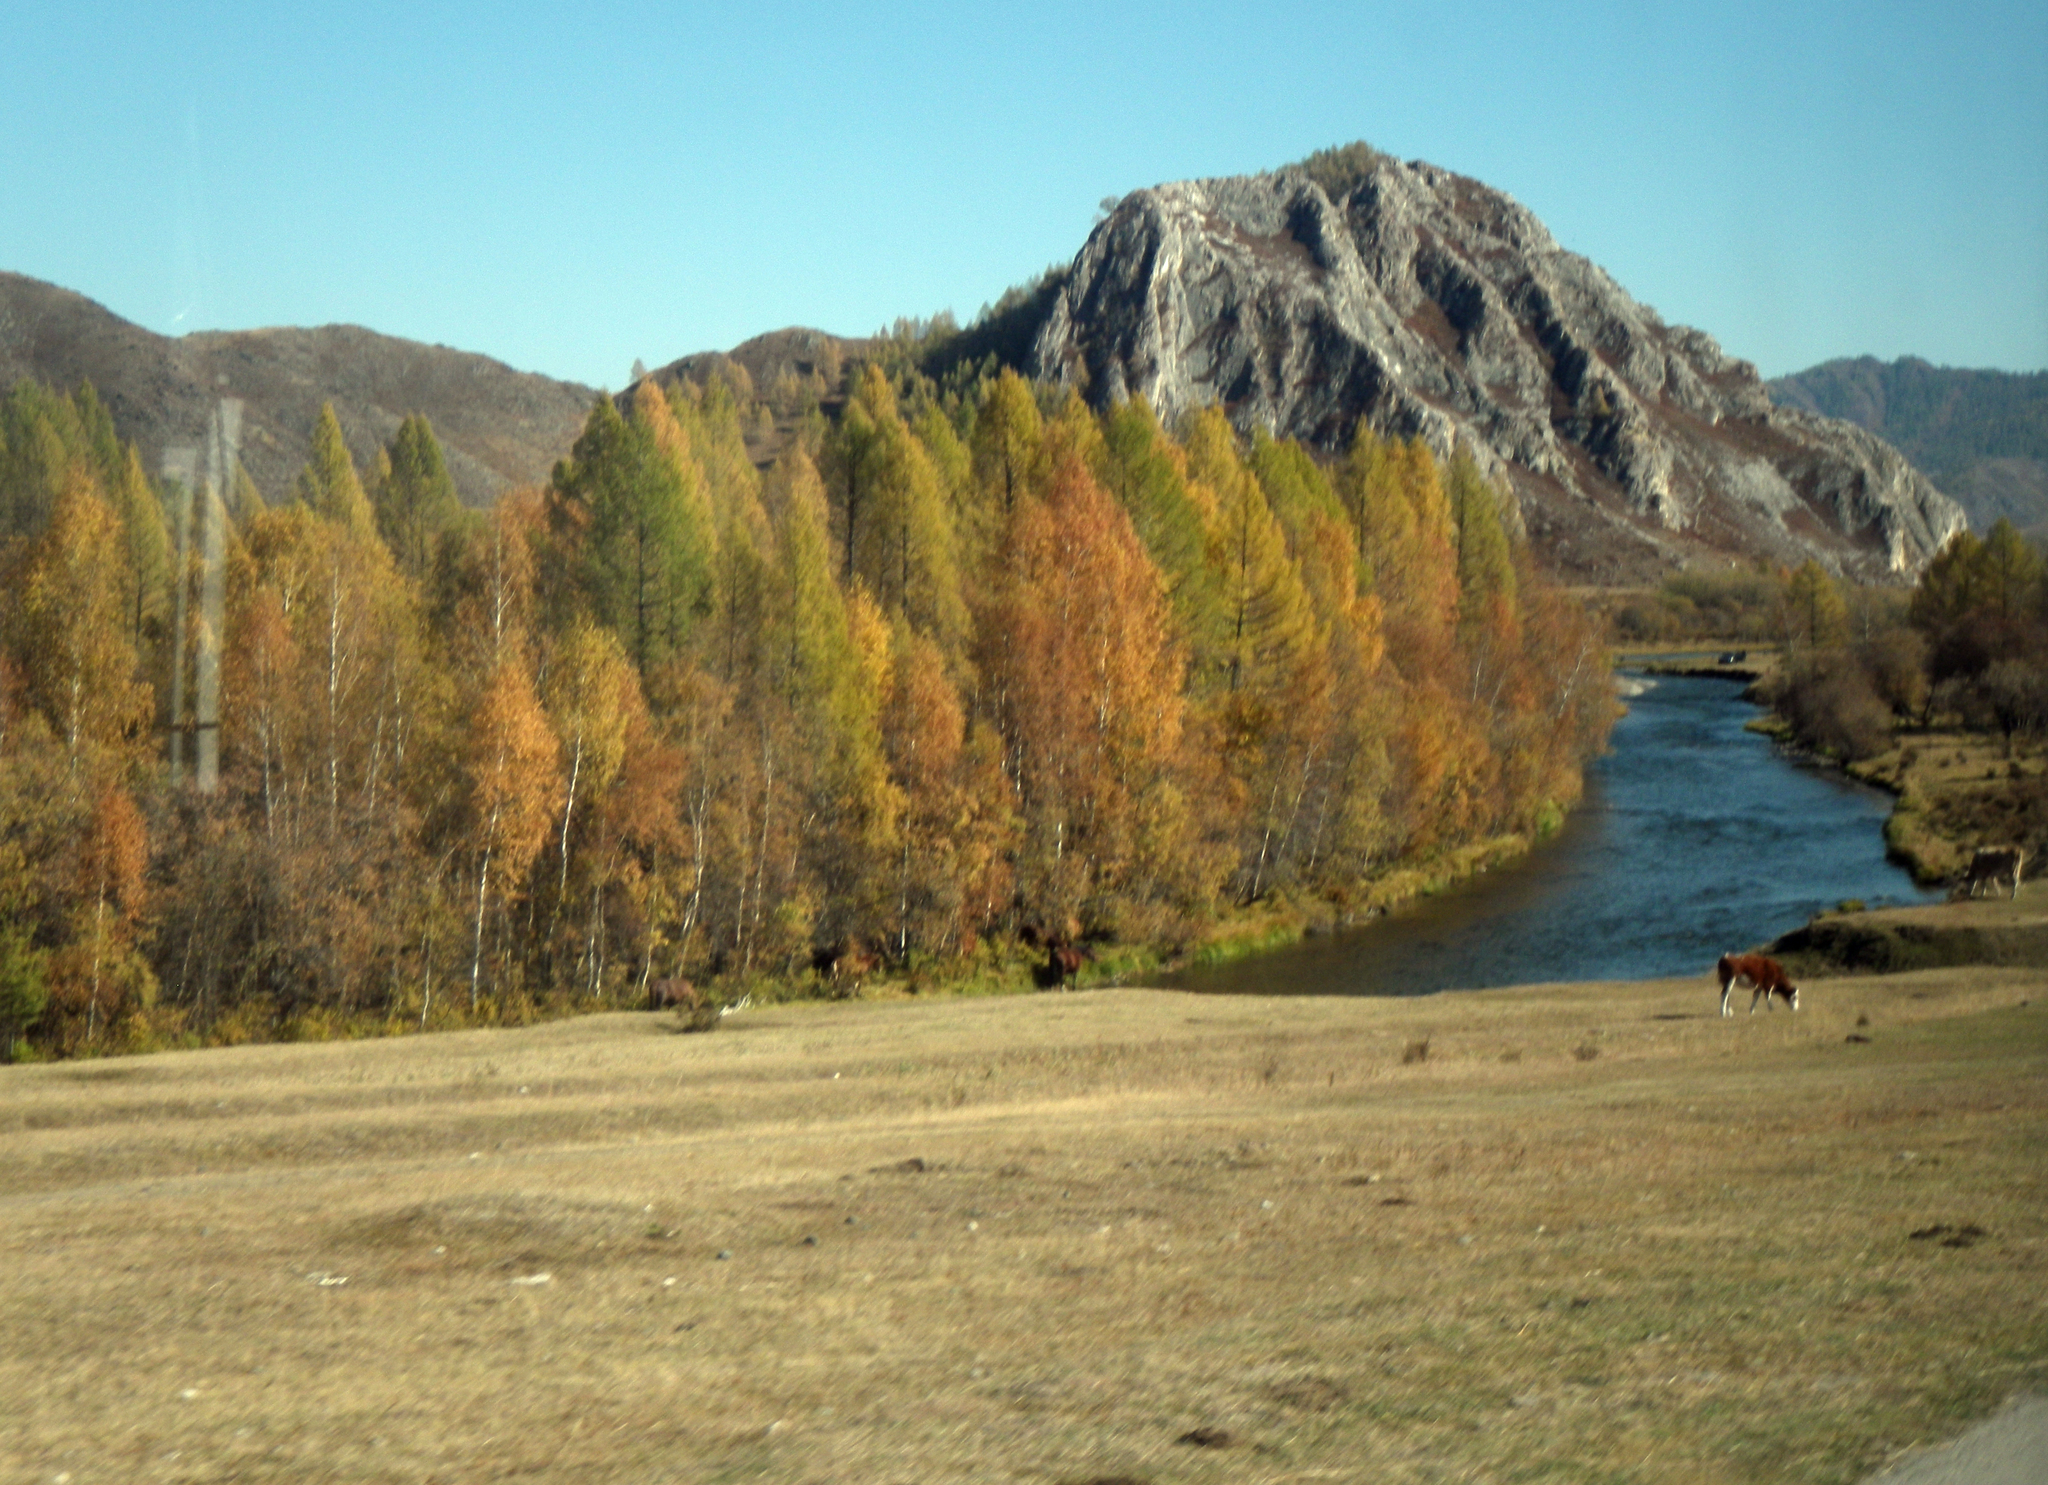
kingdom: Plantae
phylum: Tracheophyta
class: Pinopsida
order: Pinales
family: Pinaceae
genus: Larix
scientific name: Larix sibirica
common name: Siberian larch
